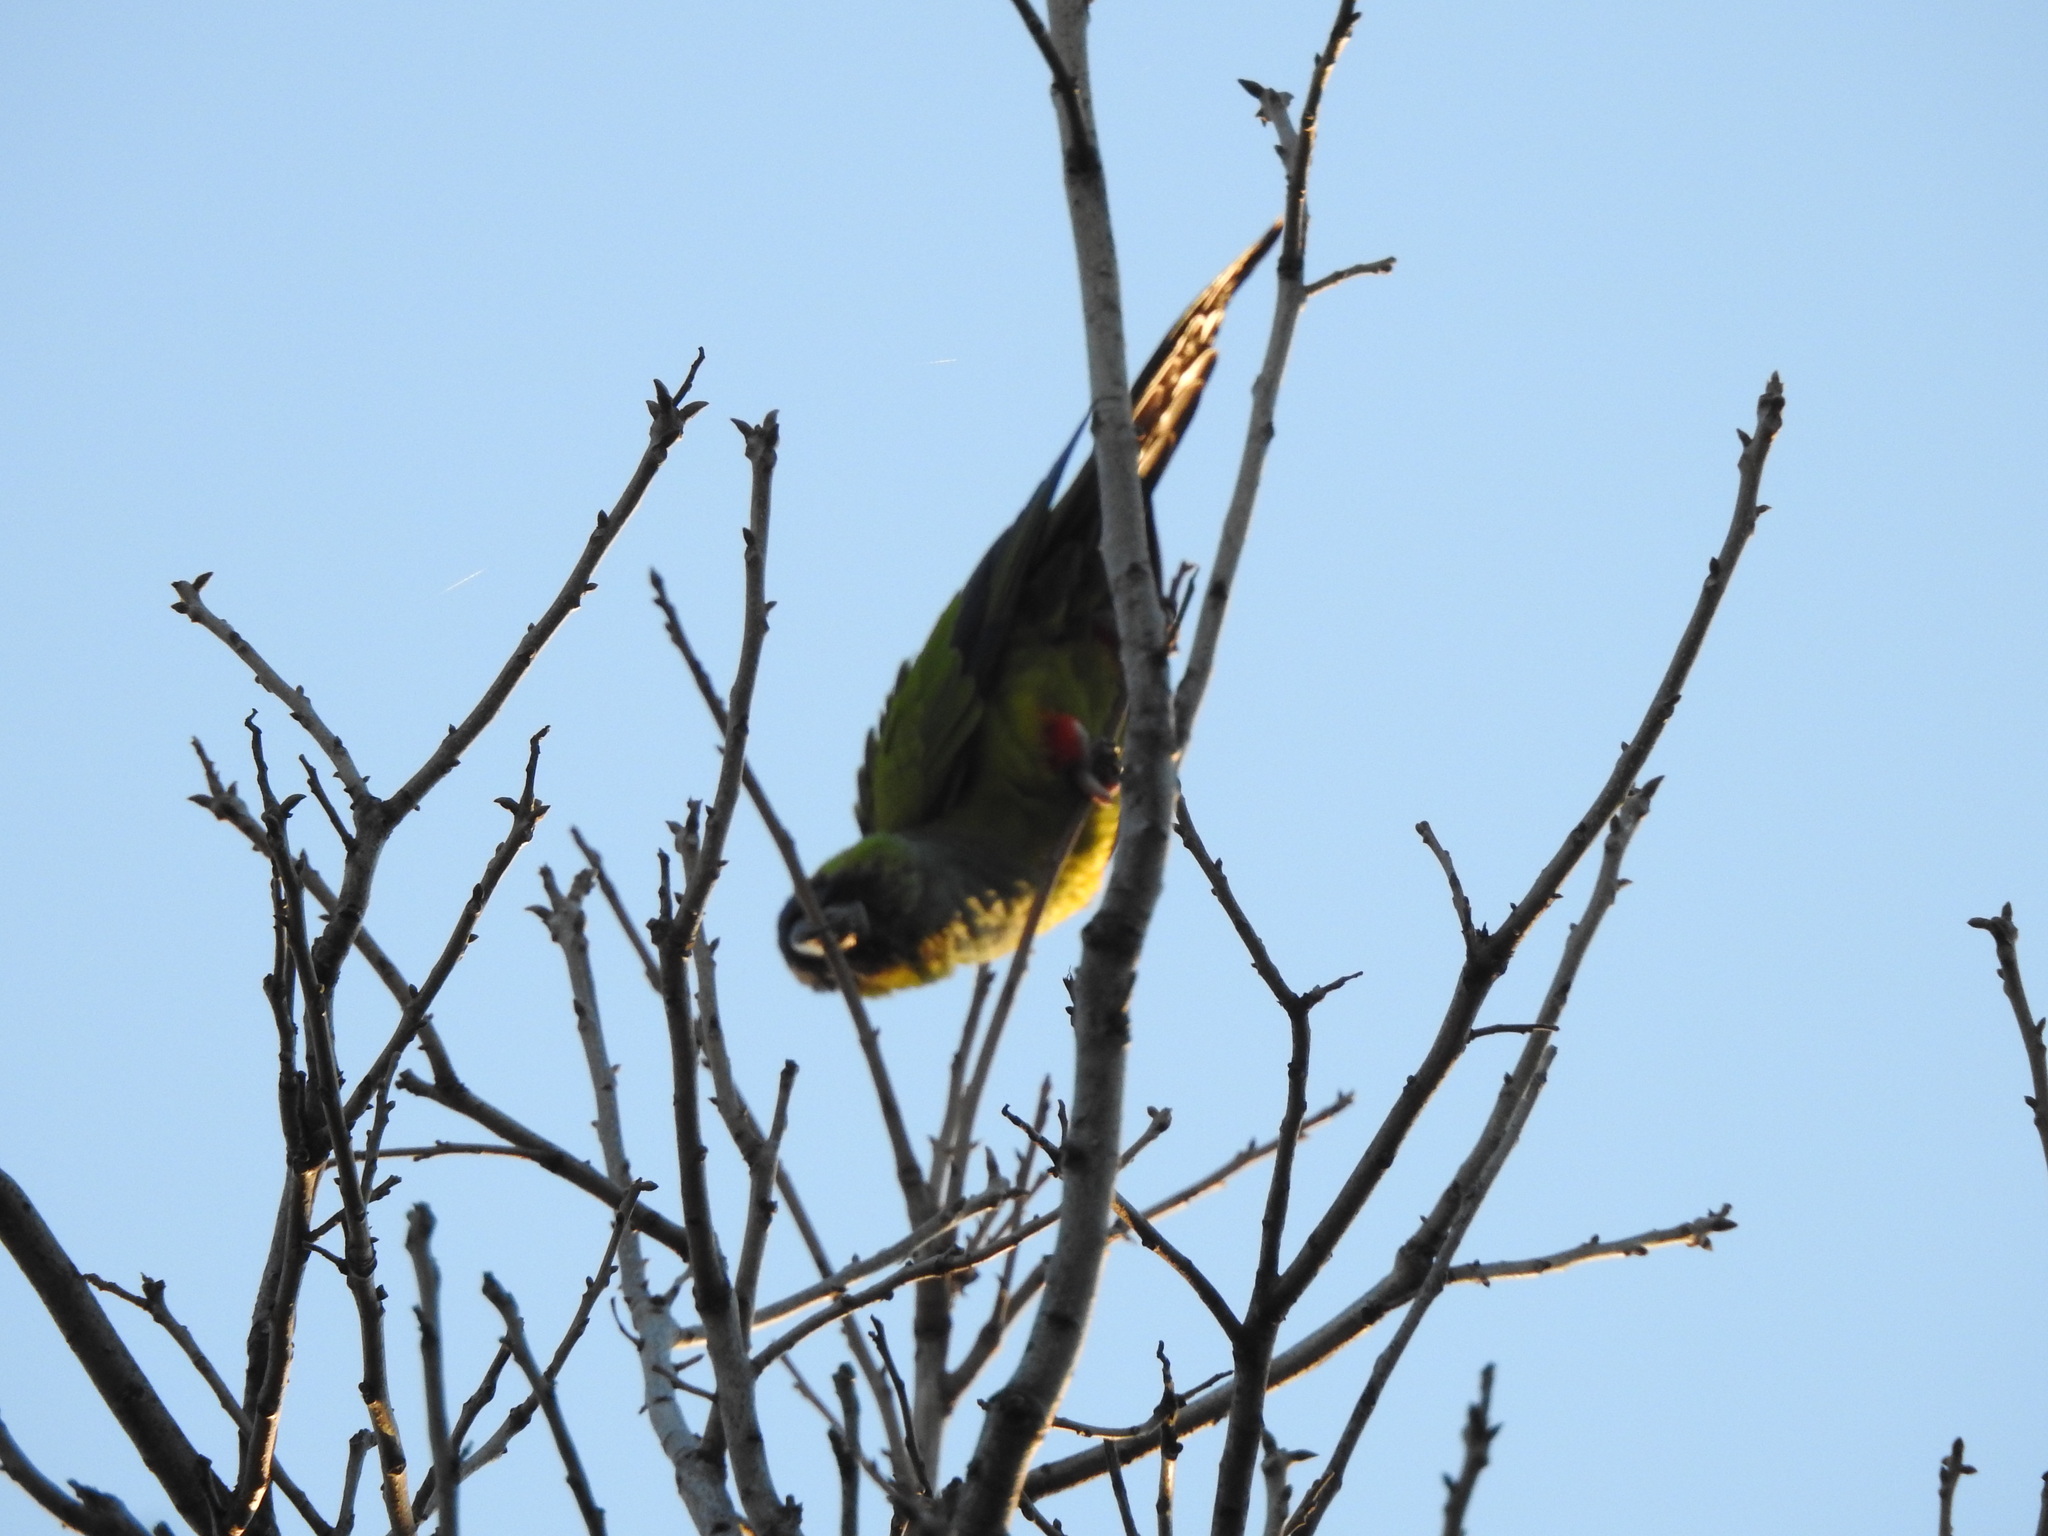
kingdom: Animalia
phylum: Chordata
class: Aves
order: Psittaciformes
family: Psittacidae
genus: Nandayus
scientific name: Nandayus nenday
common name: Nanday parakeet
